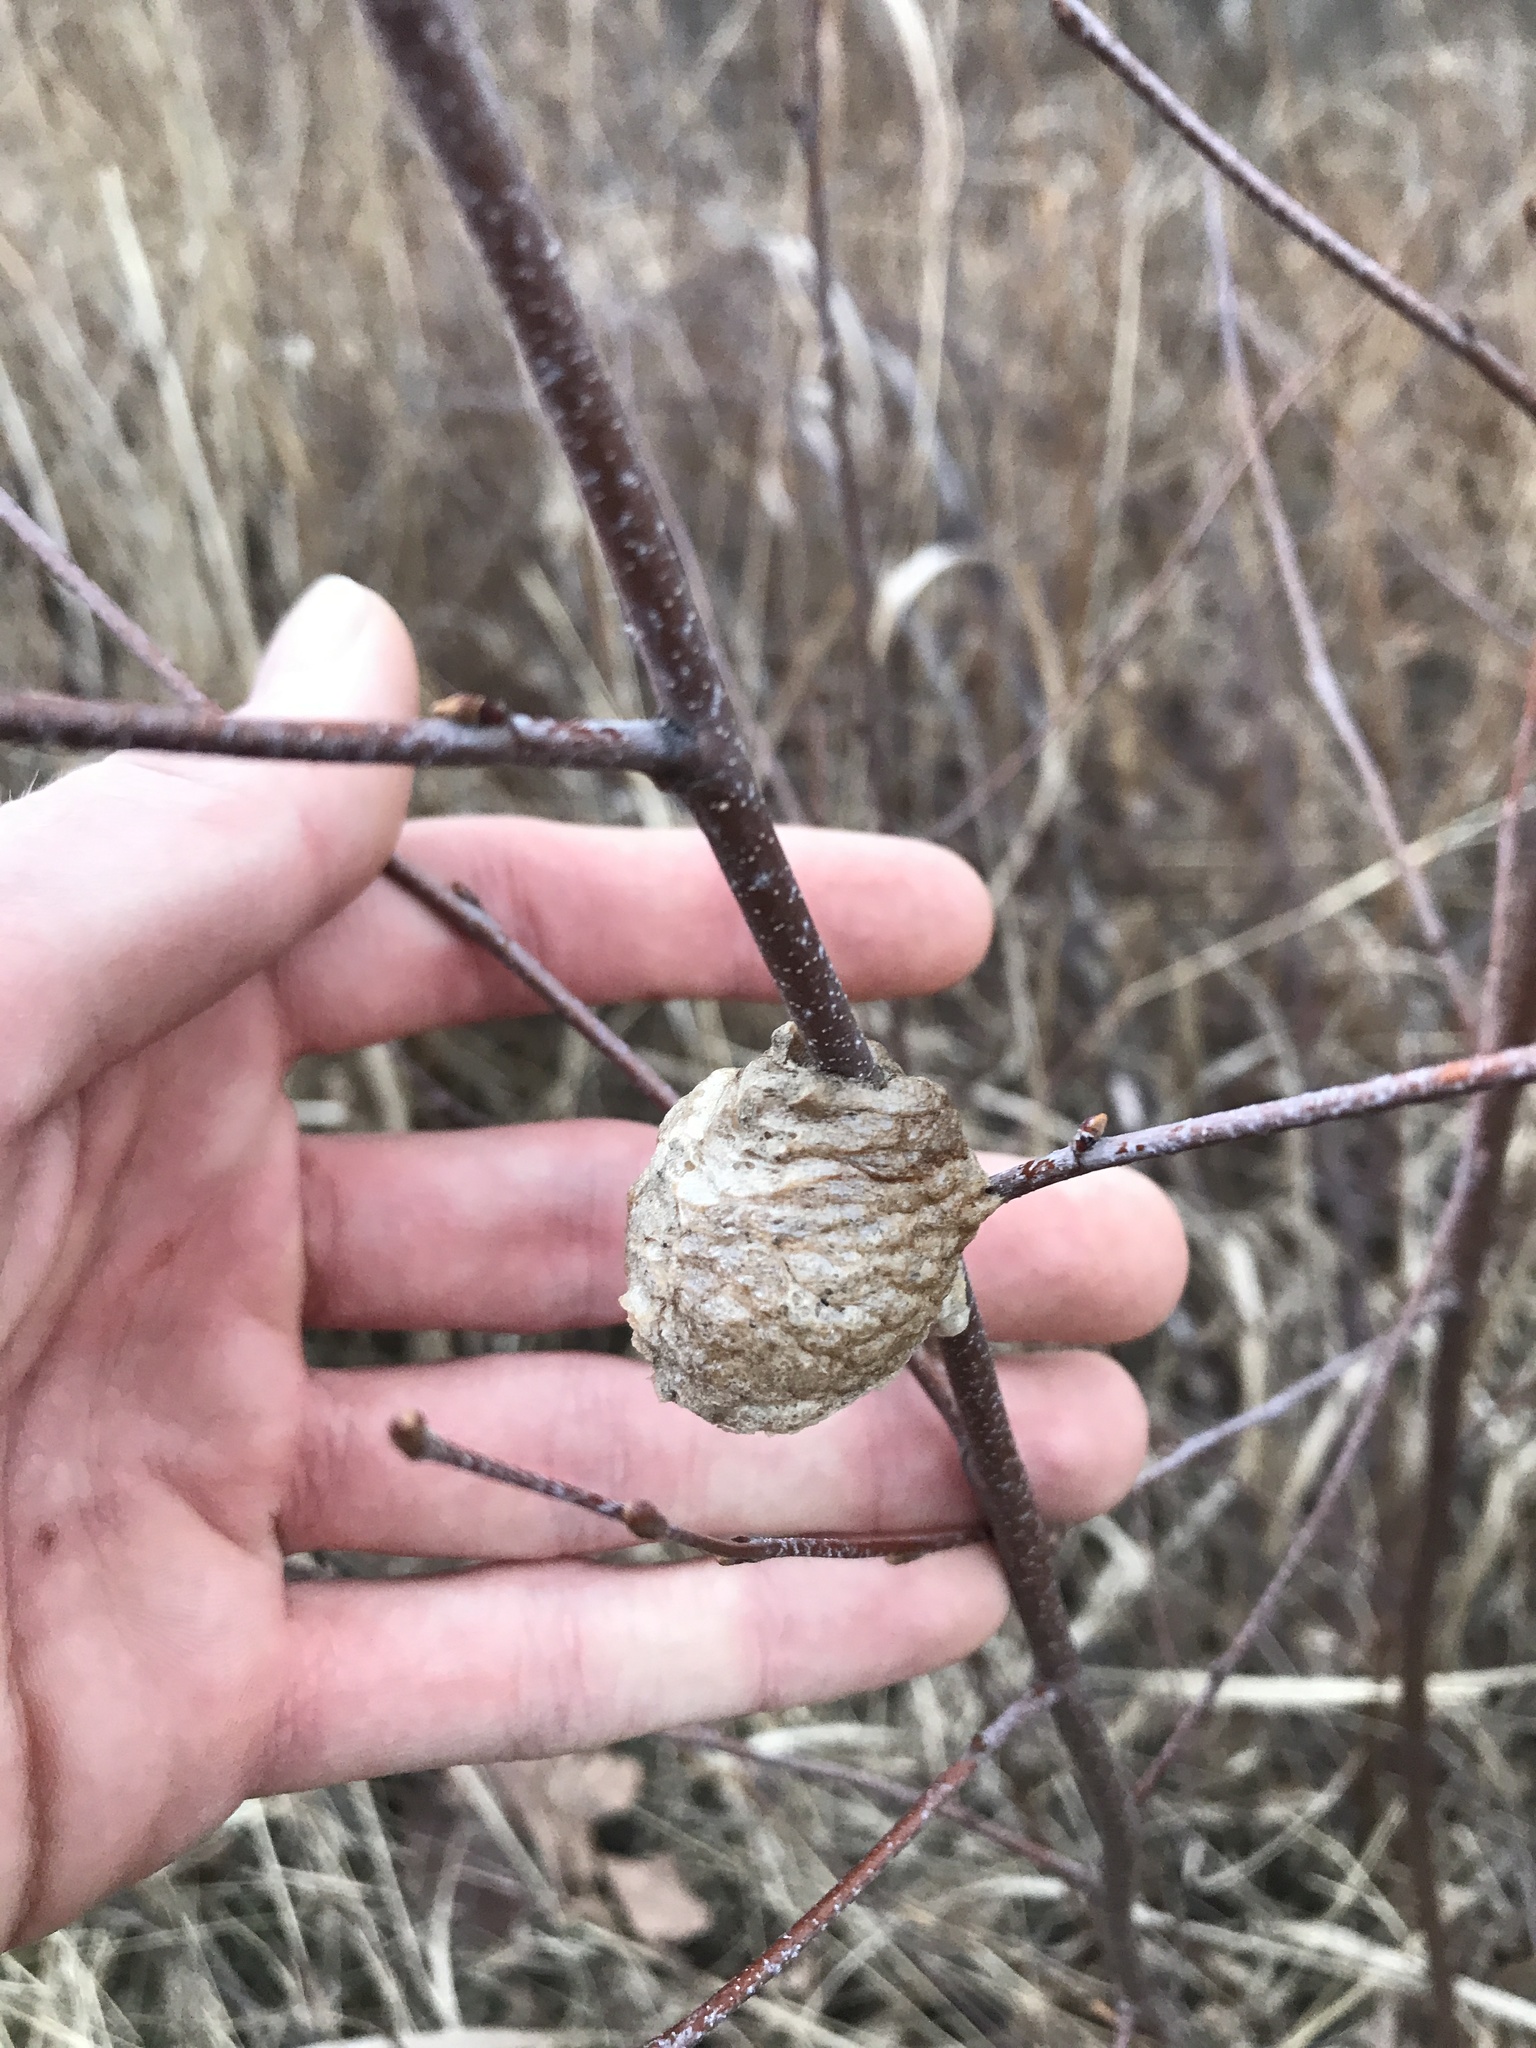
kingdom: Animalia
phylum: Arthropoda
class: Insecta
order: Mantodea
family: Mantidae
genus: Tenodera
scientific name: Tenodera sinensis
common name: Chinese mantis
